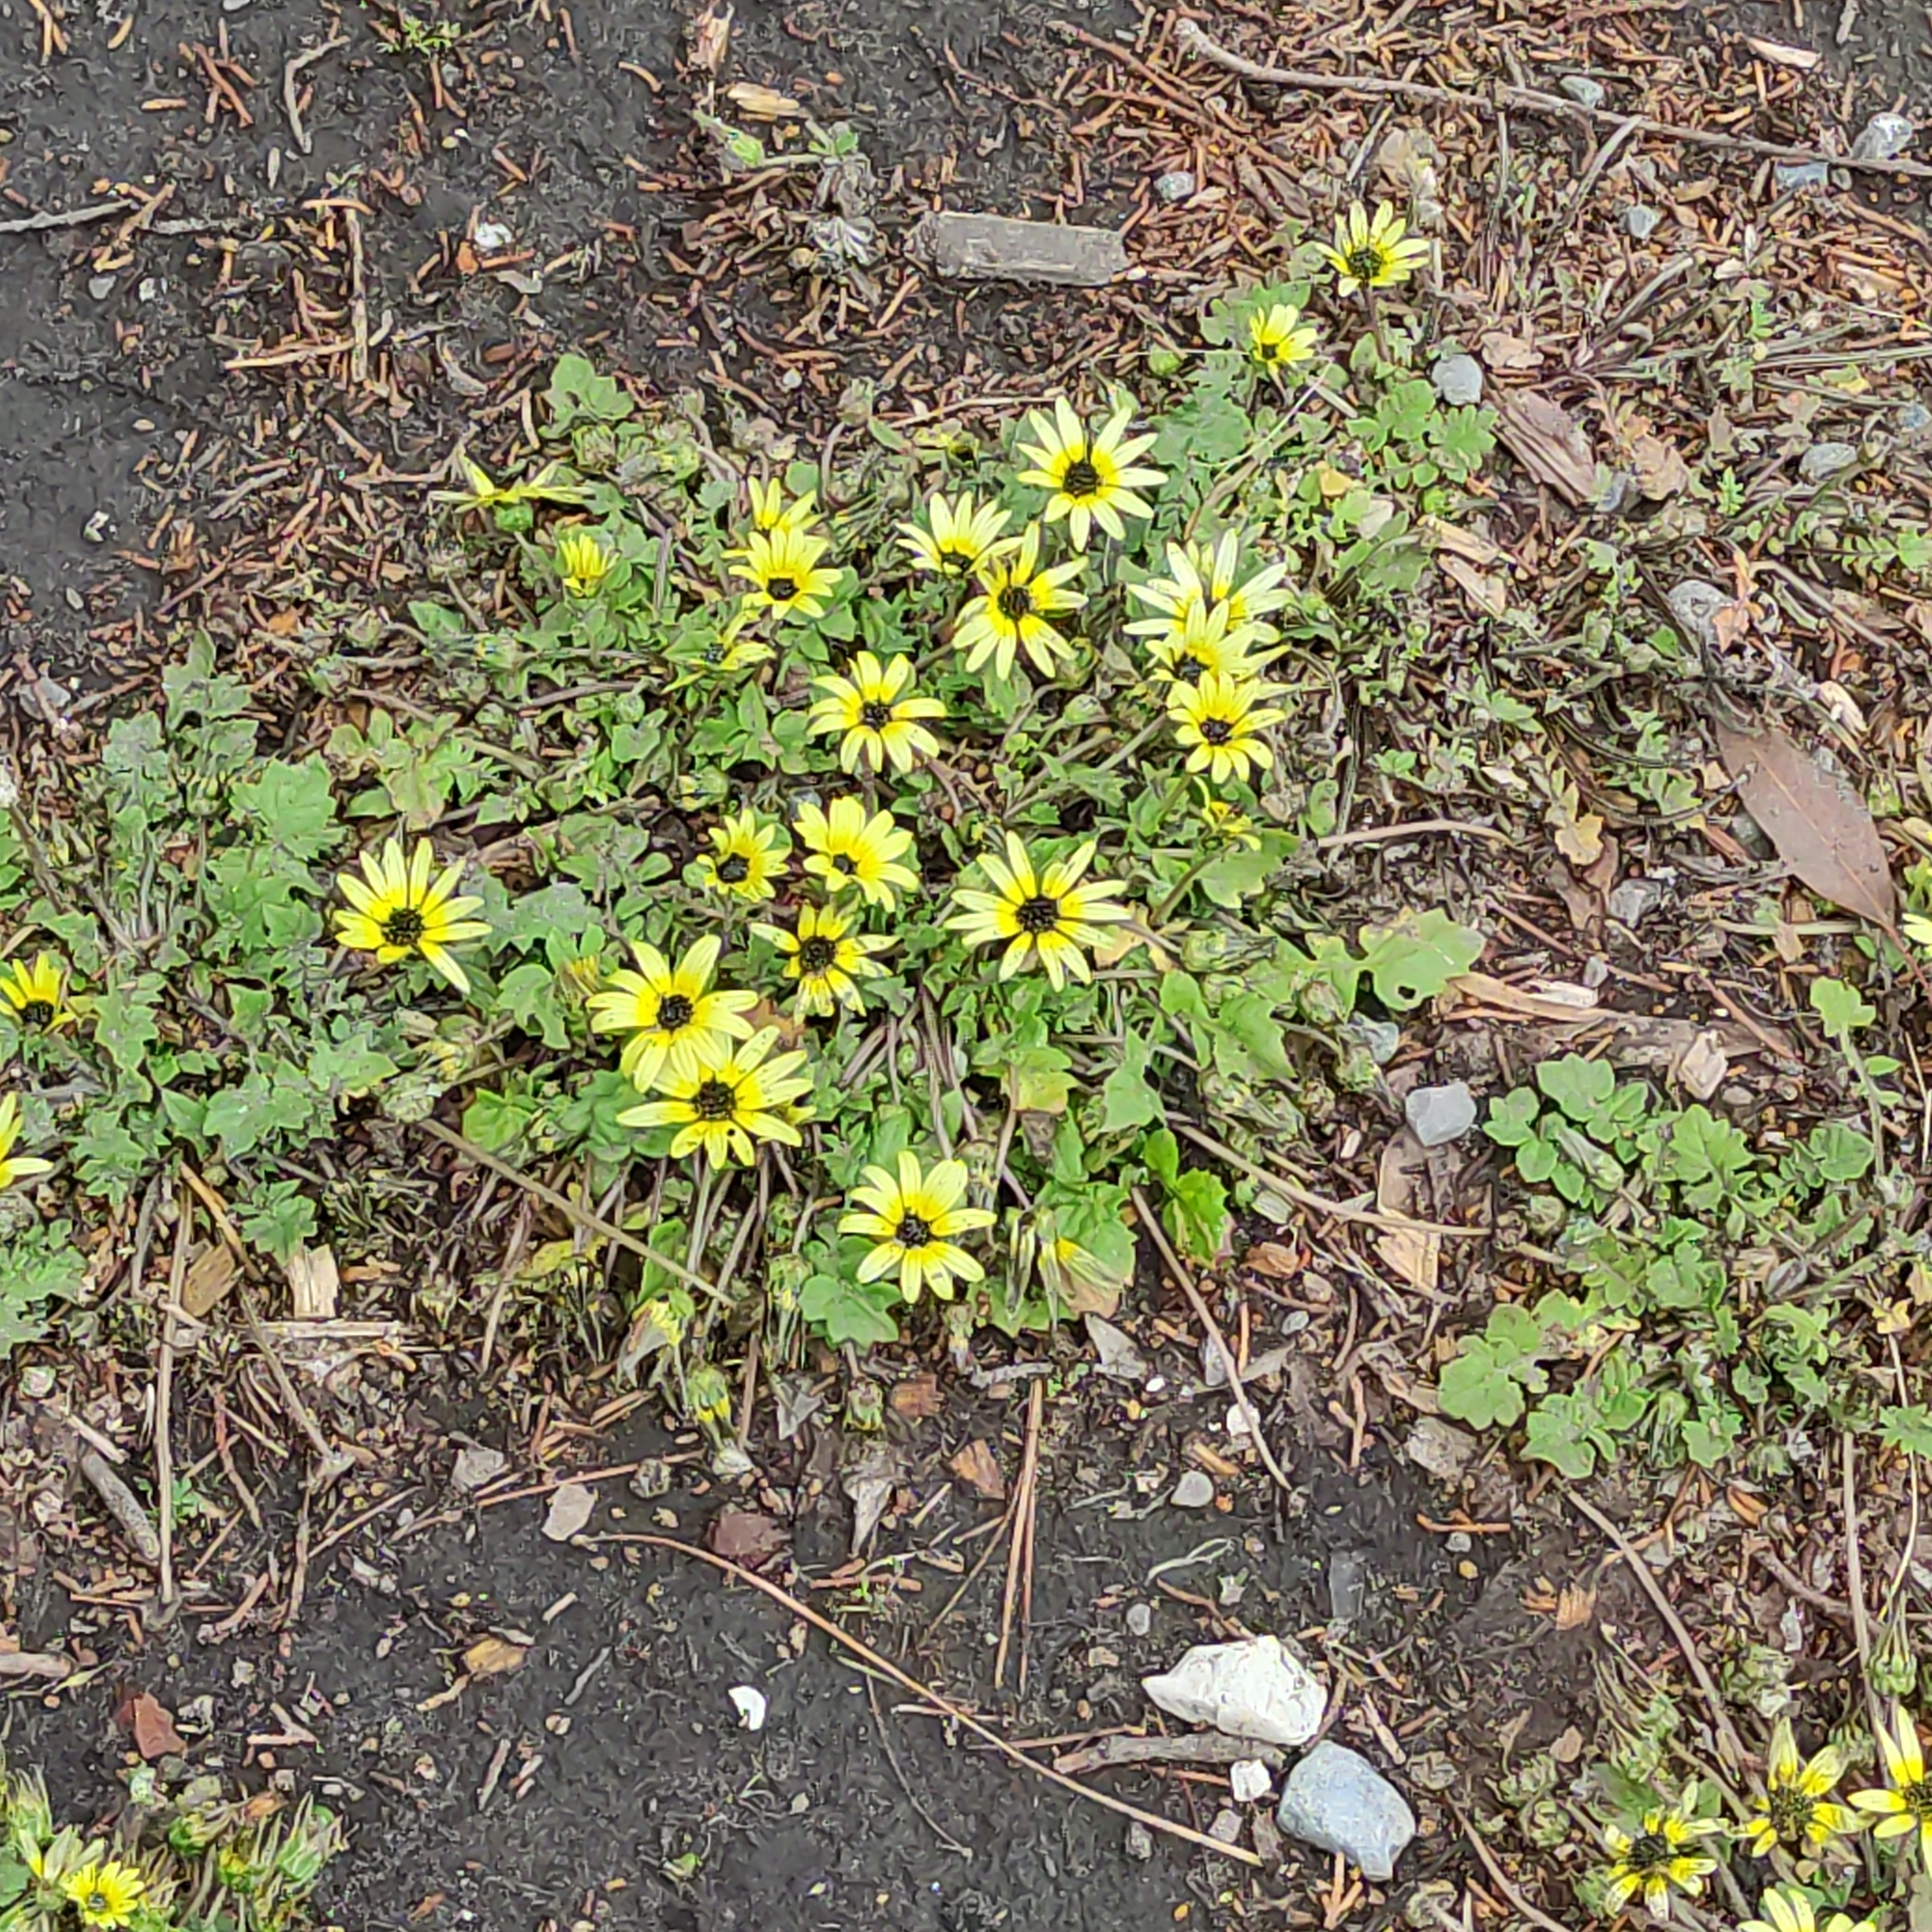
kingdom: Plantae
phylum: Tracheophyta
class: Magnoliopsida
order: Asterales
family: Asteraceae
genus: Arctotheca
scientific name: Arctotheca calendula
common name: Capeweed
